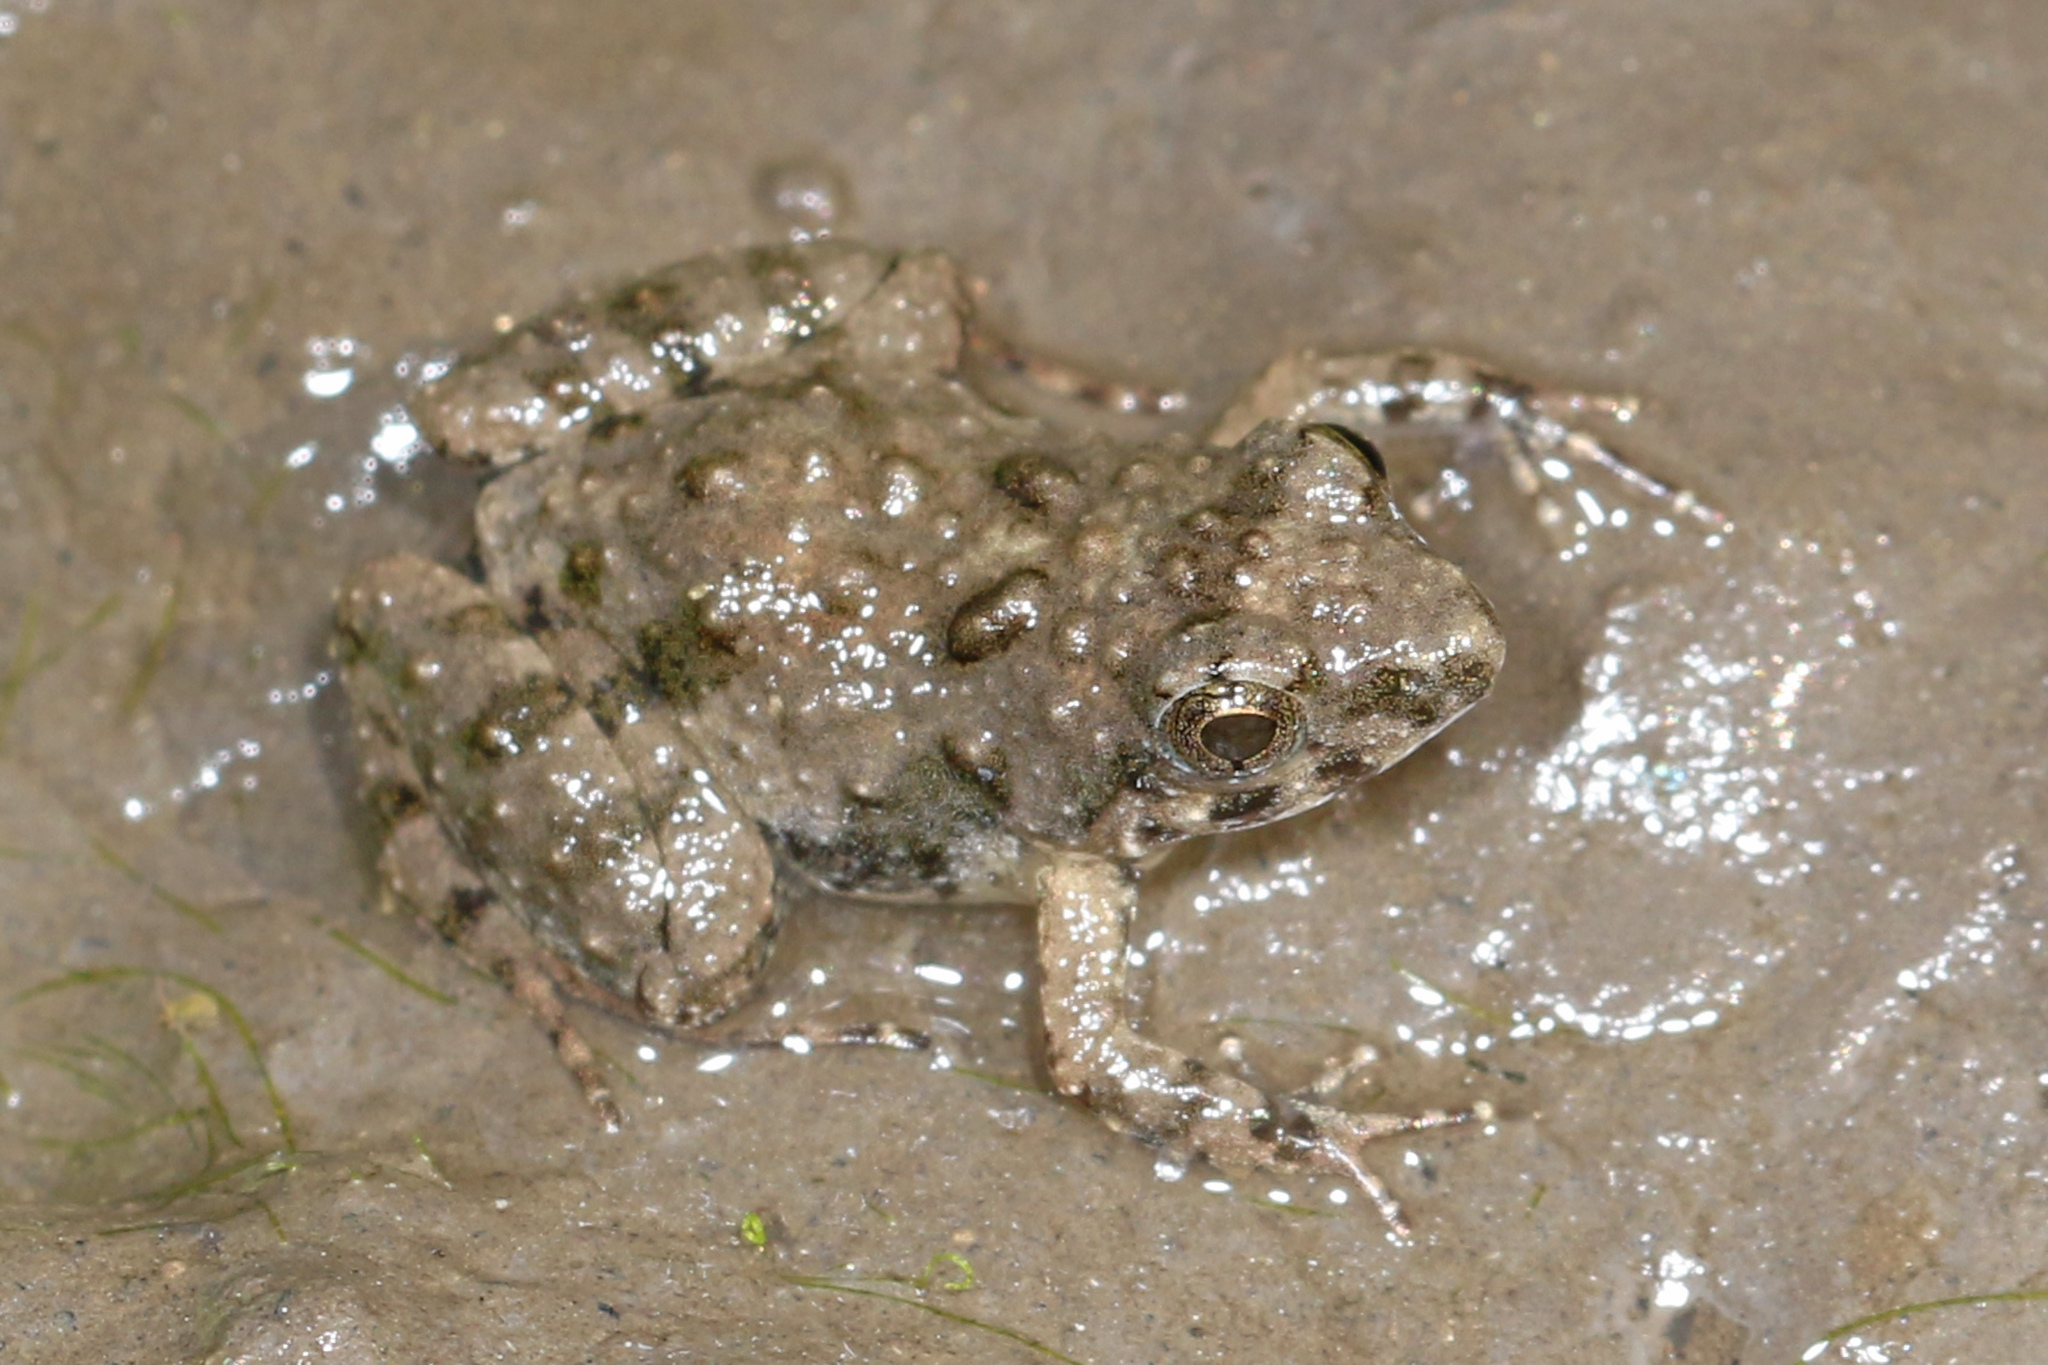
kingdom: Animalia
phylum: Chordata
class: Amphibia
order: Anura
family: Phrynobatrachidae
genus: Phrynobatrachus
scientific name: Phrynobatrachus mababiensis
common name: Dwarf puddle frog
